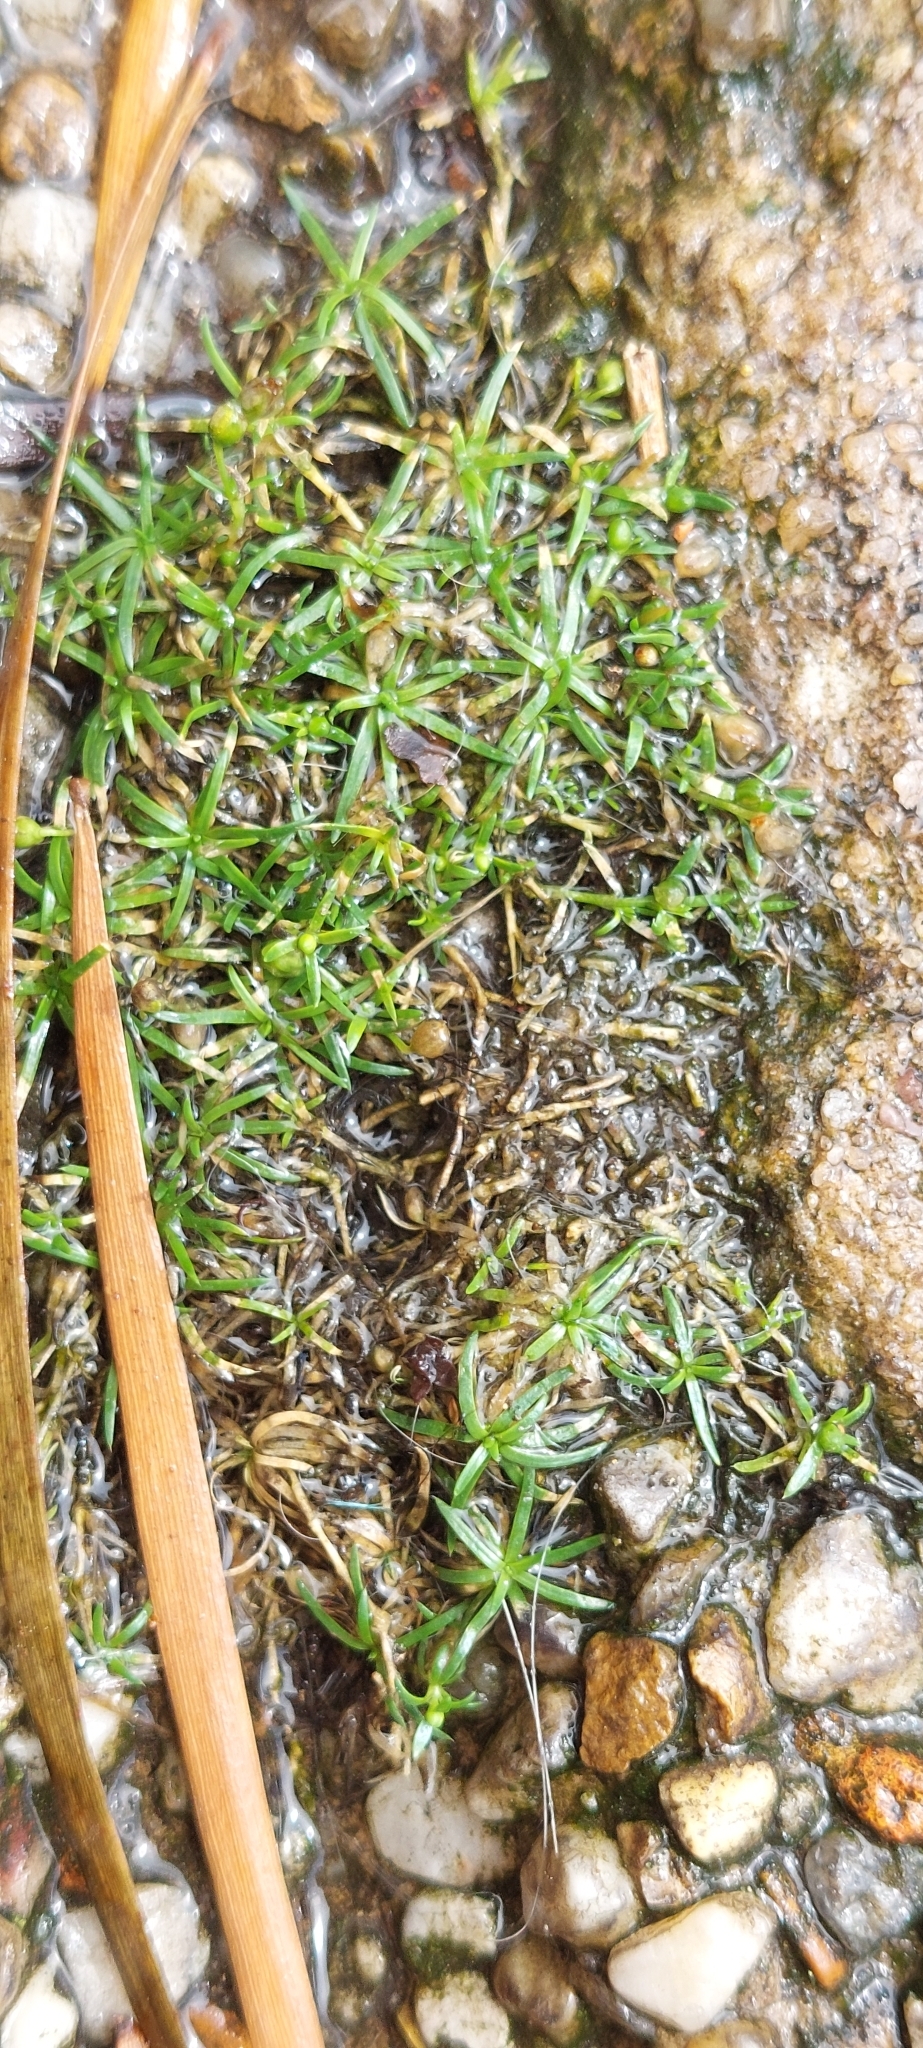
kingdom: Plantae
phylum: Tracheophyta
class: Magnoliopsida
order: Caryophyllales
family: Caryophyllaceae
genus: Sagina
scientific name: Sagina procumbens
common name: Procumbent pearlwort
